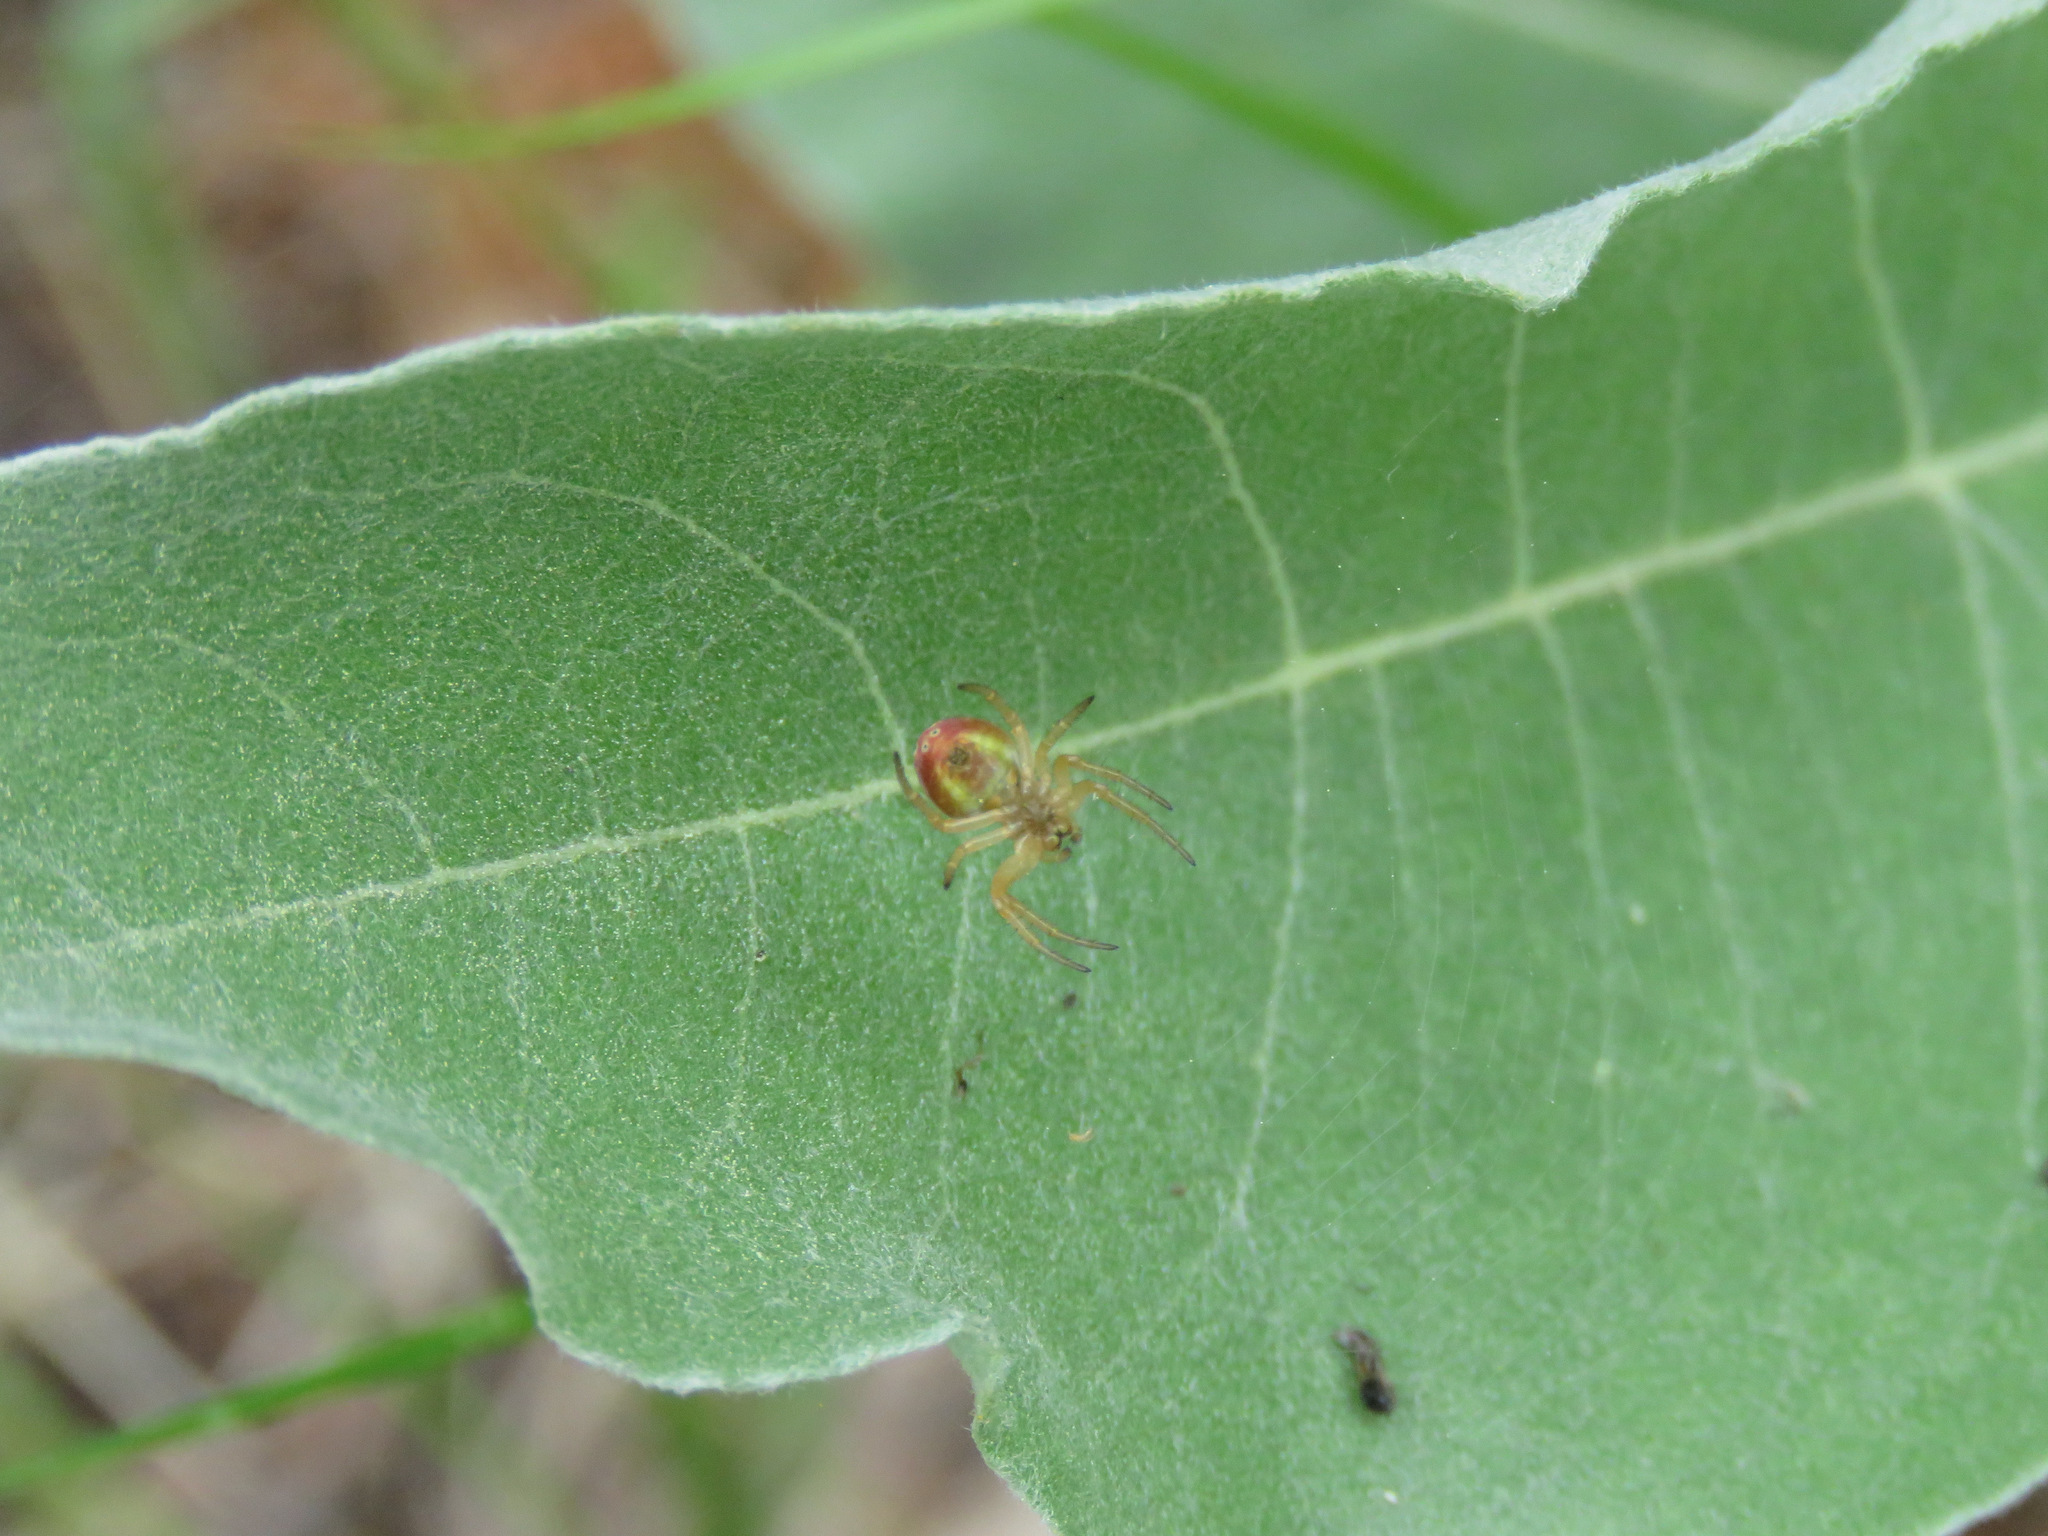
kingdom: Animalia
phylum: Arthropoda
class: Arachnida
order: Araneae
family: Araneidae
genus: Araniella
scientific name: Araniella displicata
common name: Sixspotted orb weaver
